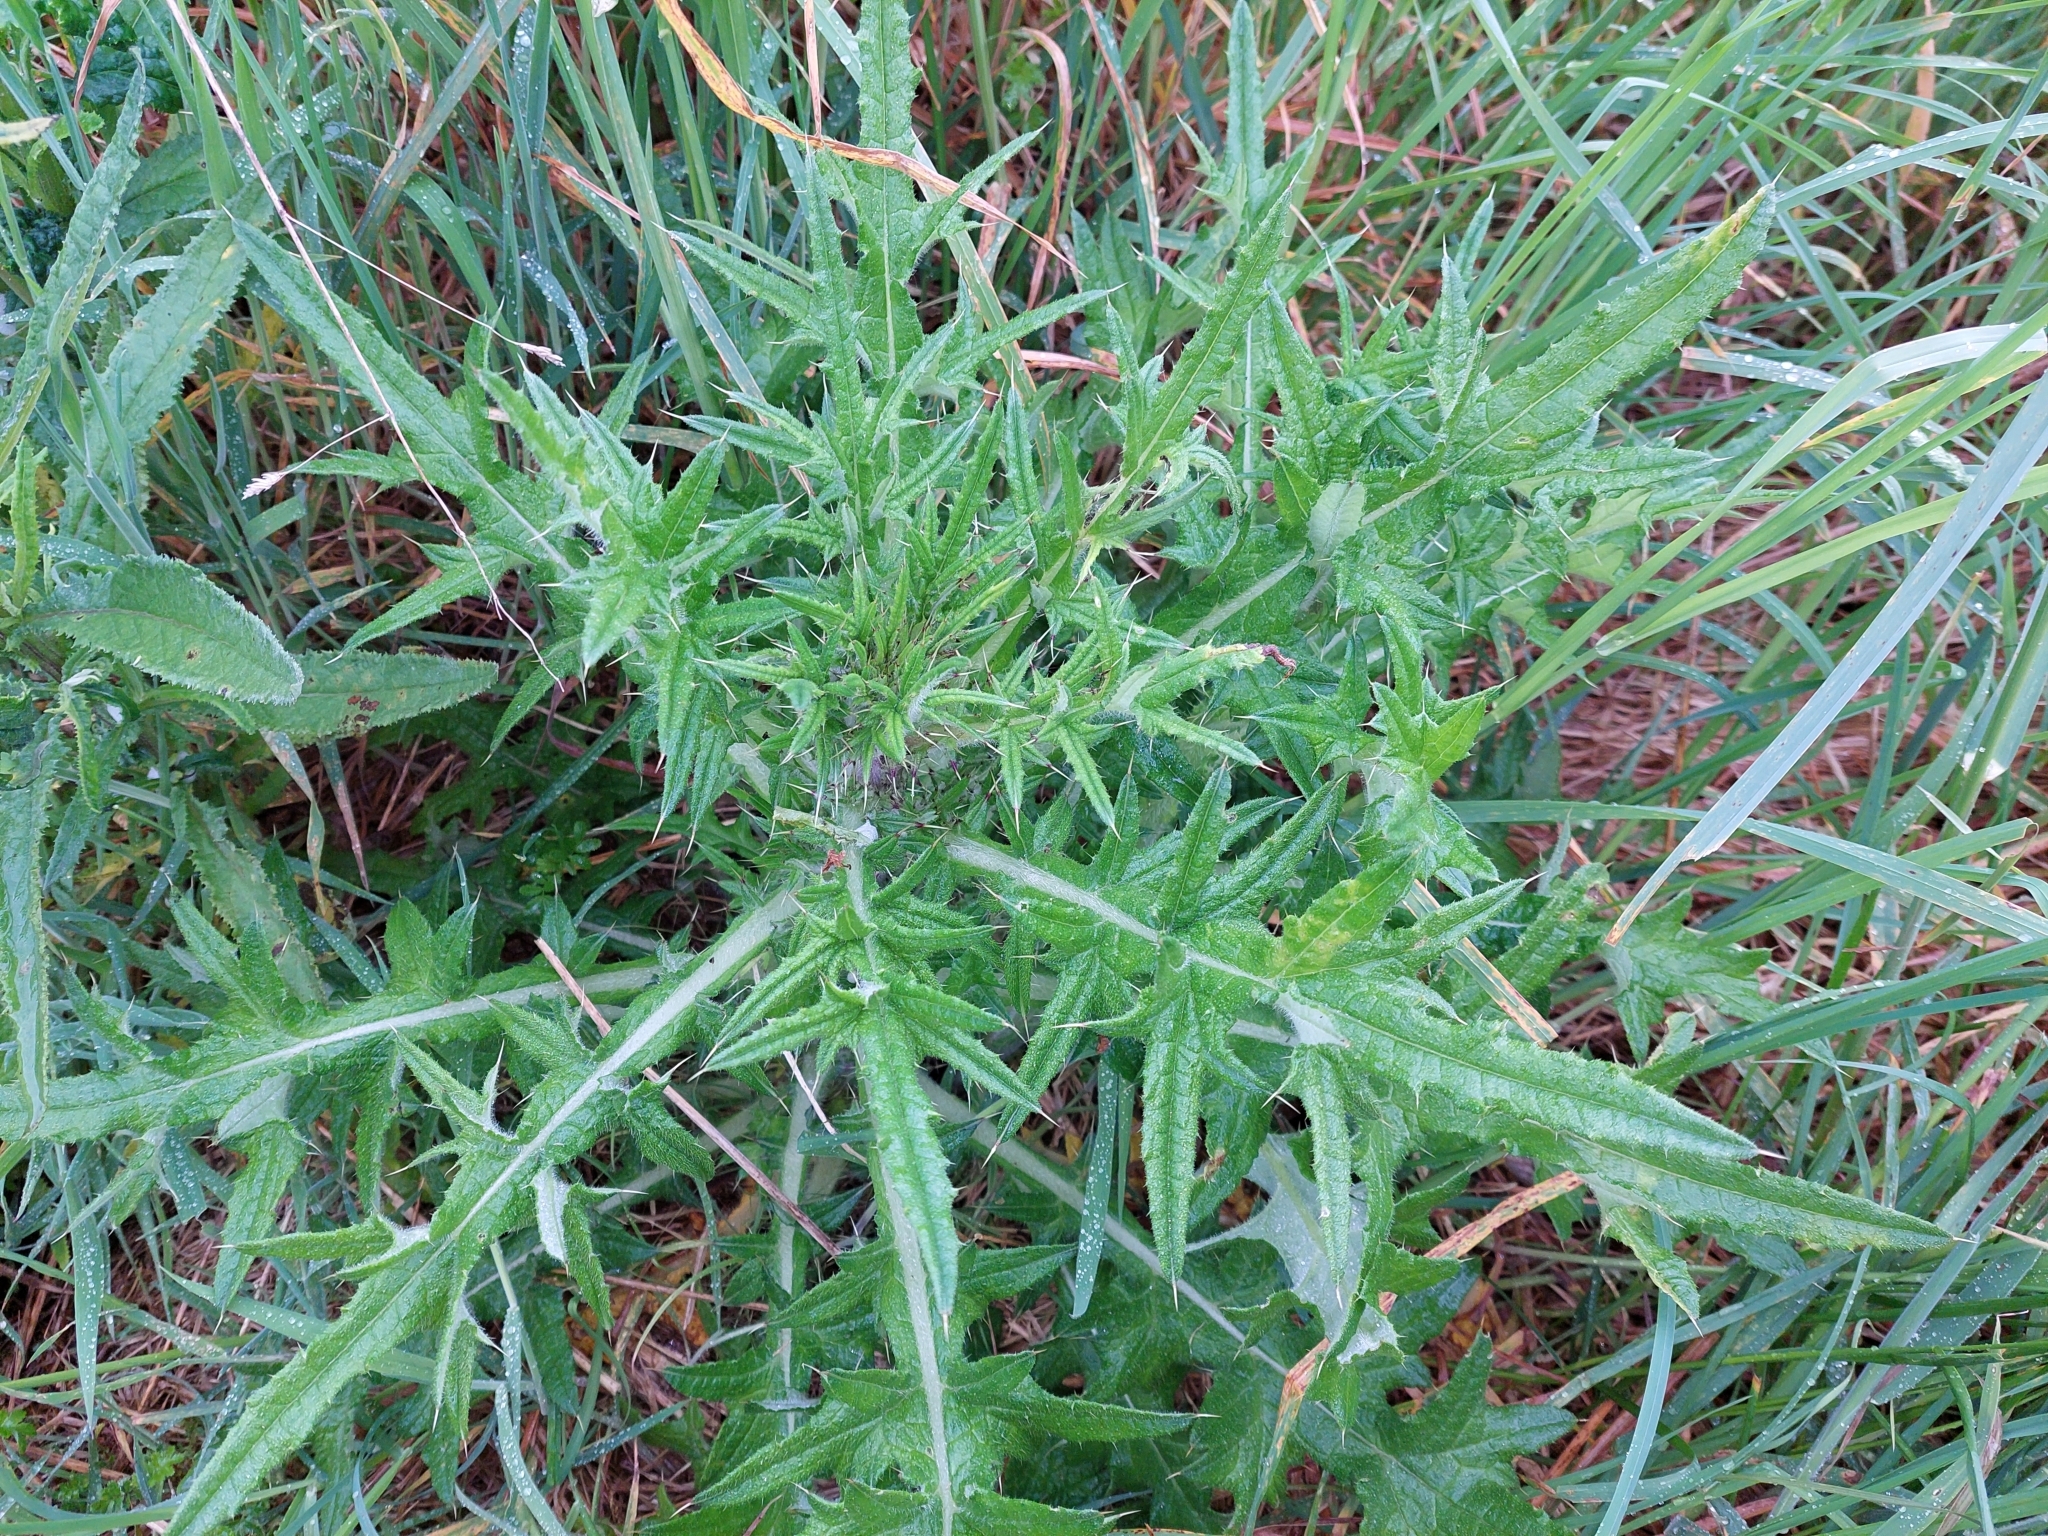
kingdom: Plantae
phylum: Tracheophyta
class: Magnoliopsida
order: Asterales
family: Asteraceae
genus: Cirsium
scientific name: Cirsium vulgare
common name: Bull thistle
